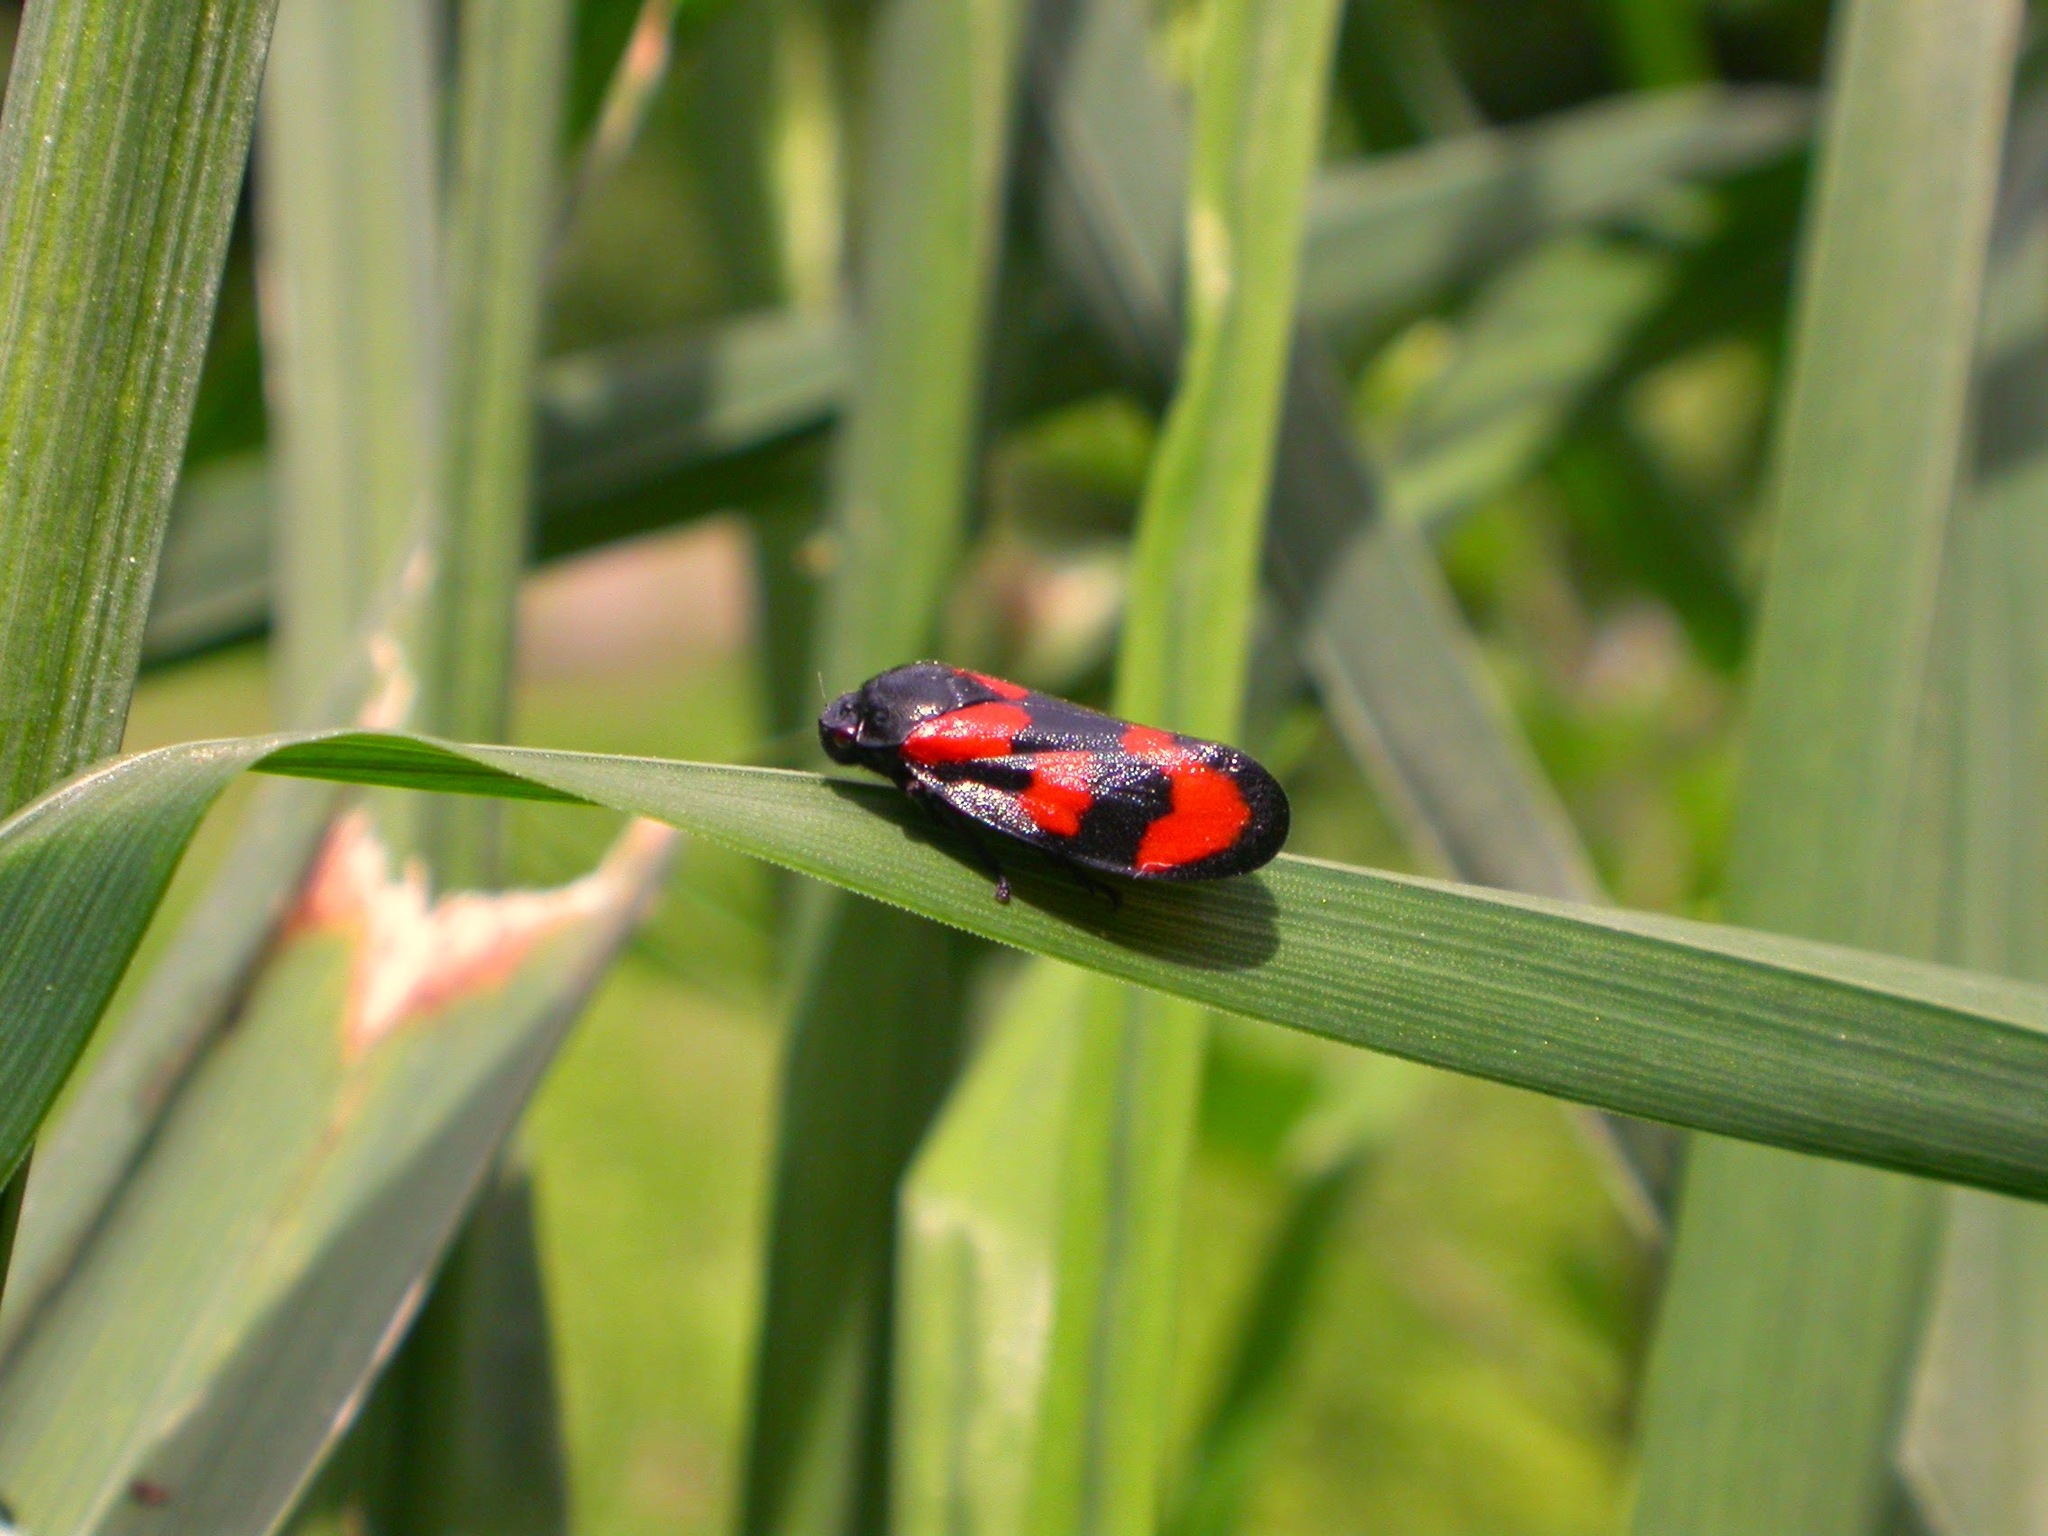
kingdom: Animalia
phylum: Arthropoda
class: Insecta
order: Hemiptera
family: Cercopidae
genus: Cercopis
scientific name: Cercopis vulnerata
